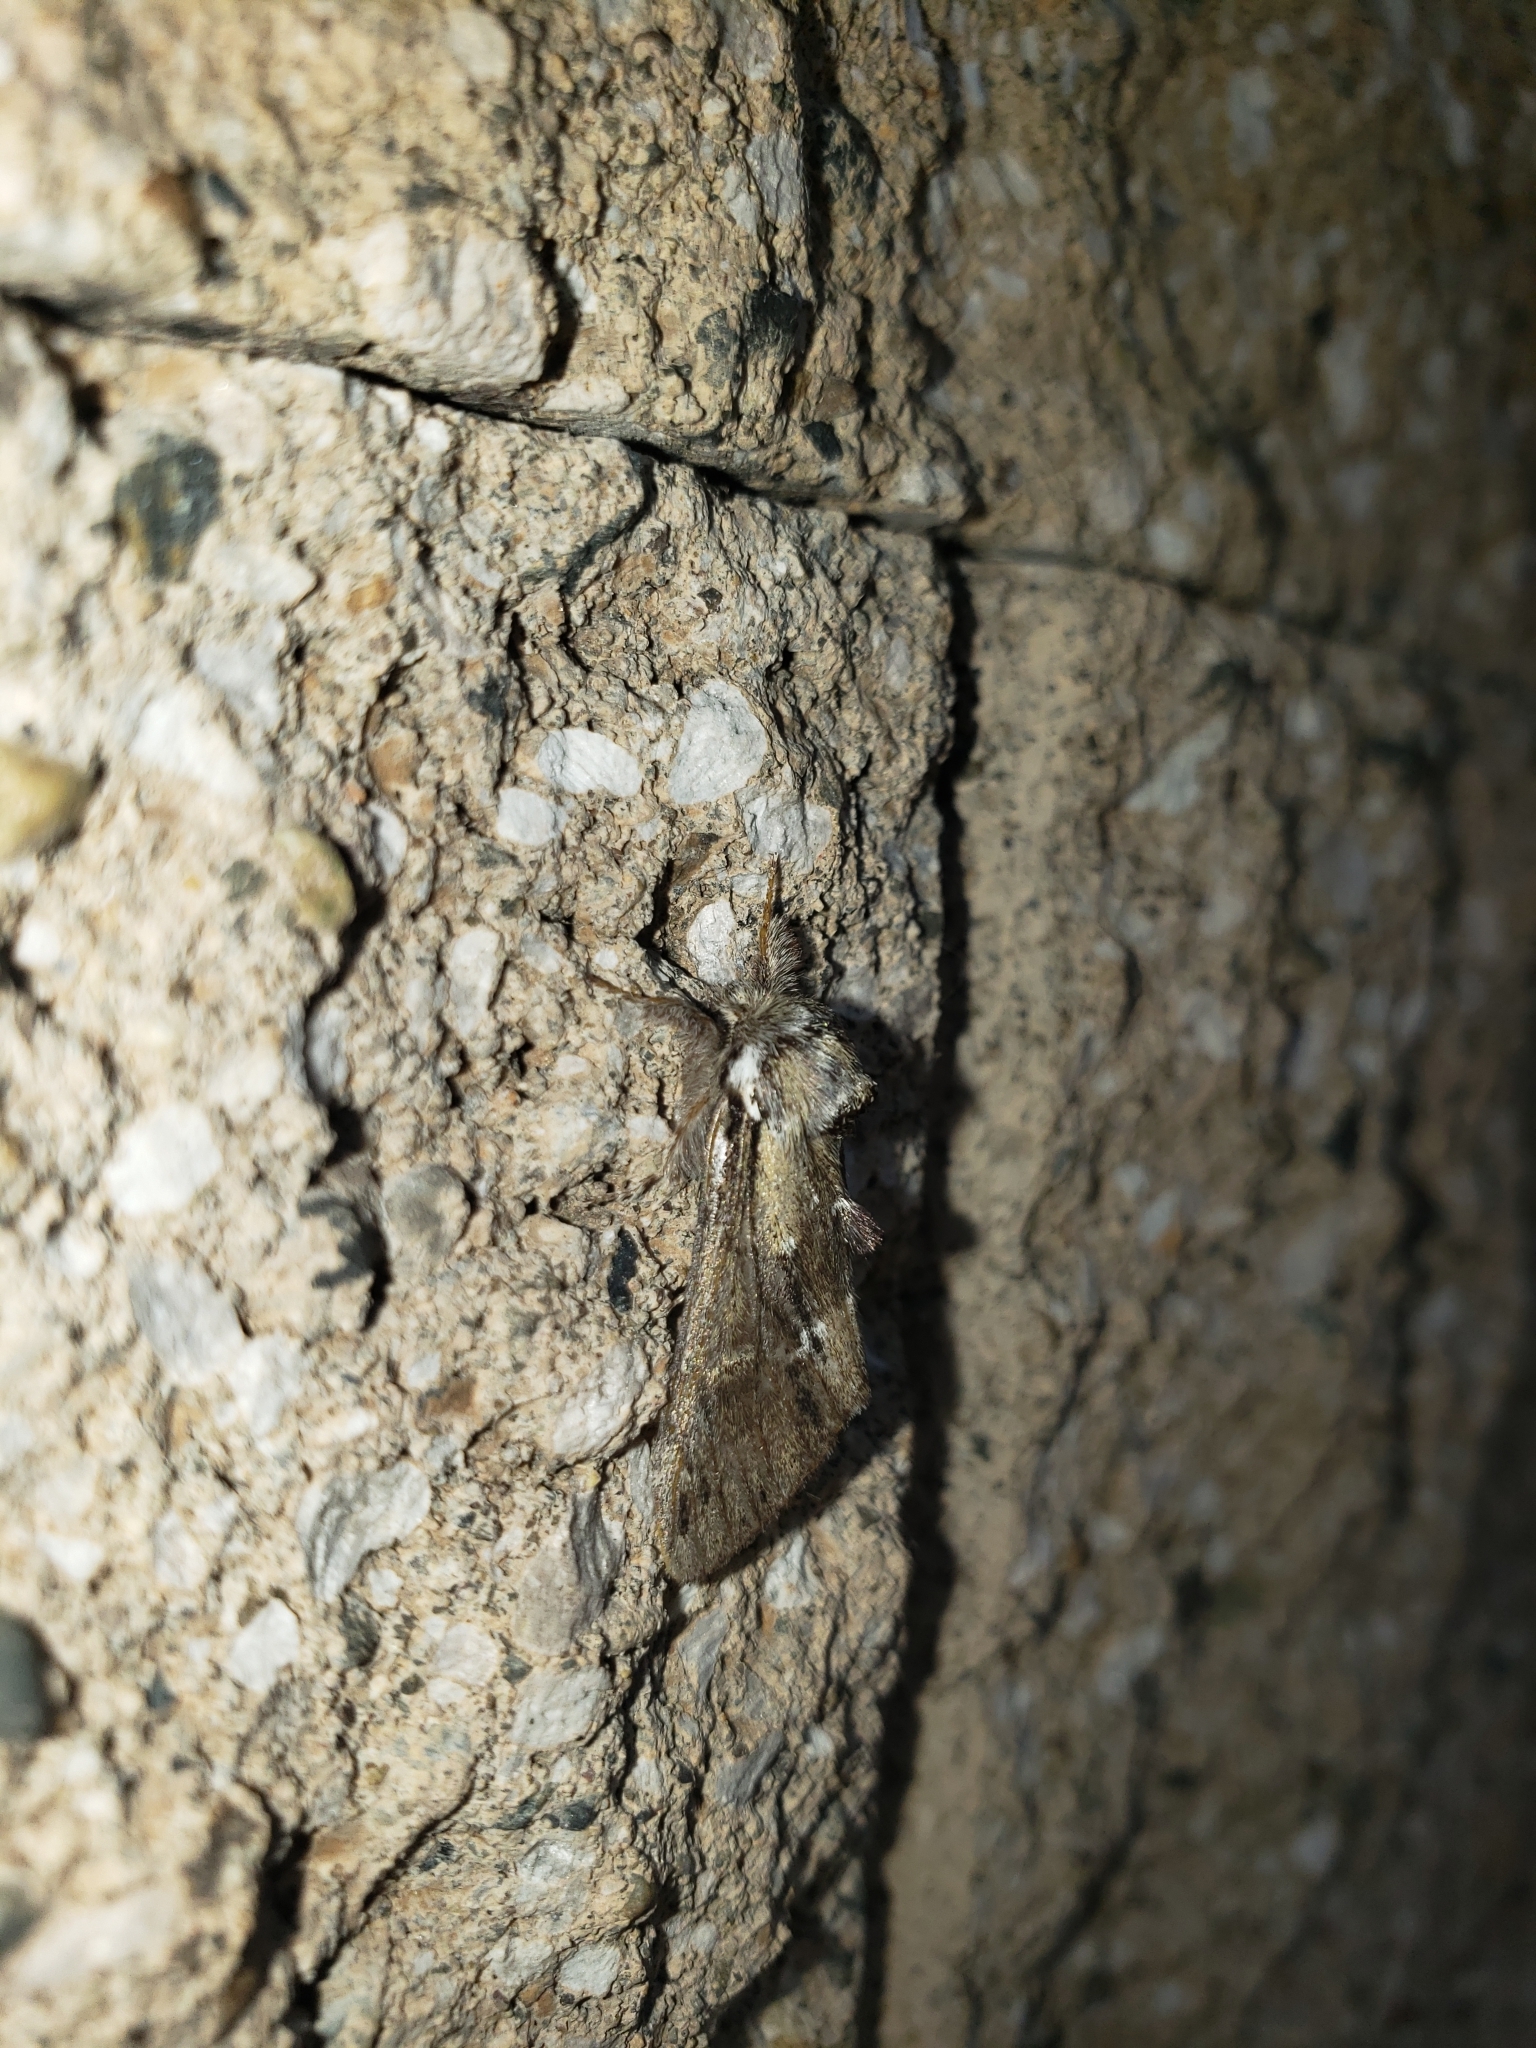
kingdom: Animalia
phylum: Arthropoda
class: Insecta
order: Lepidoptera
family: Notodontidae
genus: Paraeschra
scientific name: Paraeschra georgica
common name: Georgian prominent
